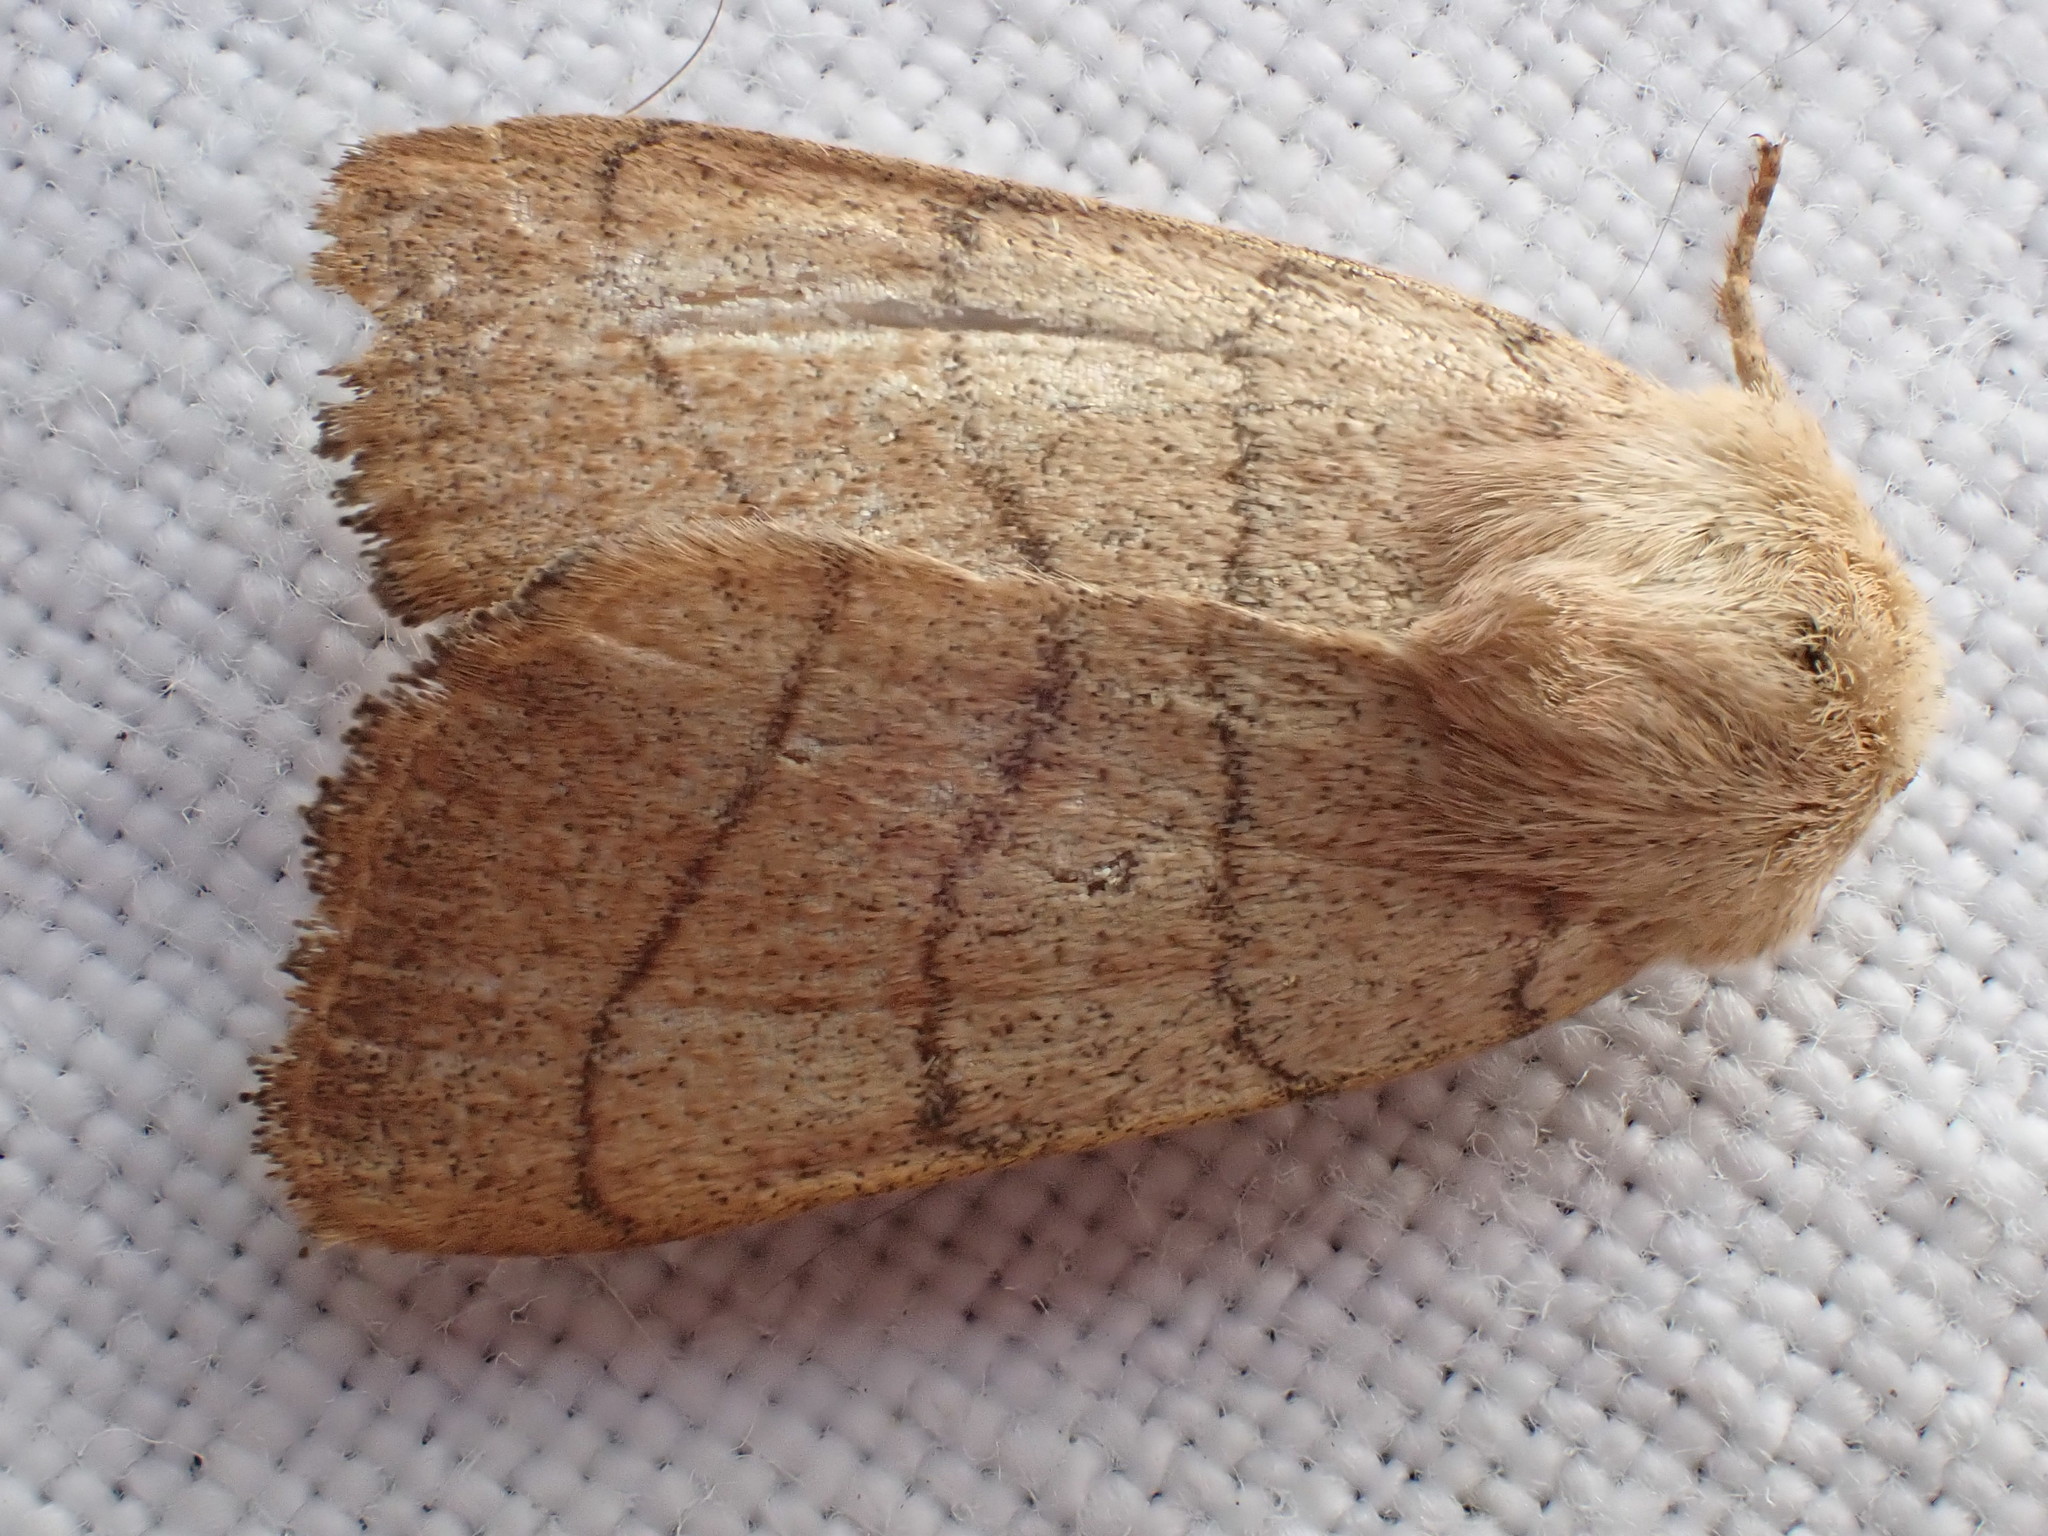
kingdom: Animalia
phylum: Arthropoda
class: Insecta
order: Lepidoptera
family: Noctuidae
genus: Charanyca
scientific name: Charanyca trigrammica
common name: Treble lines
